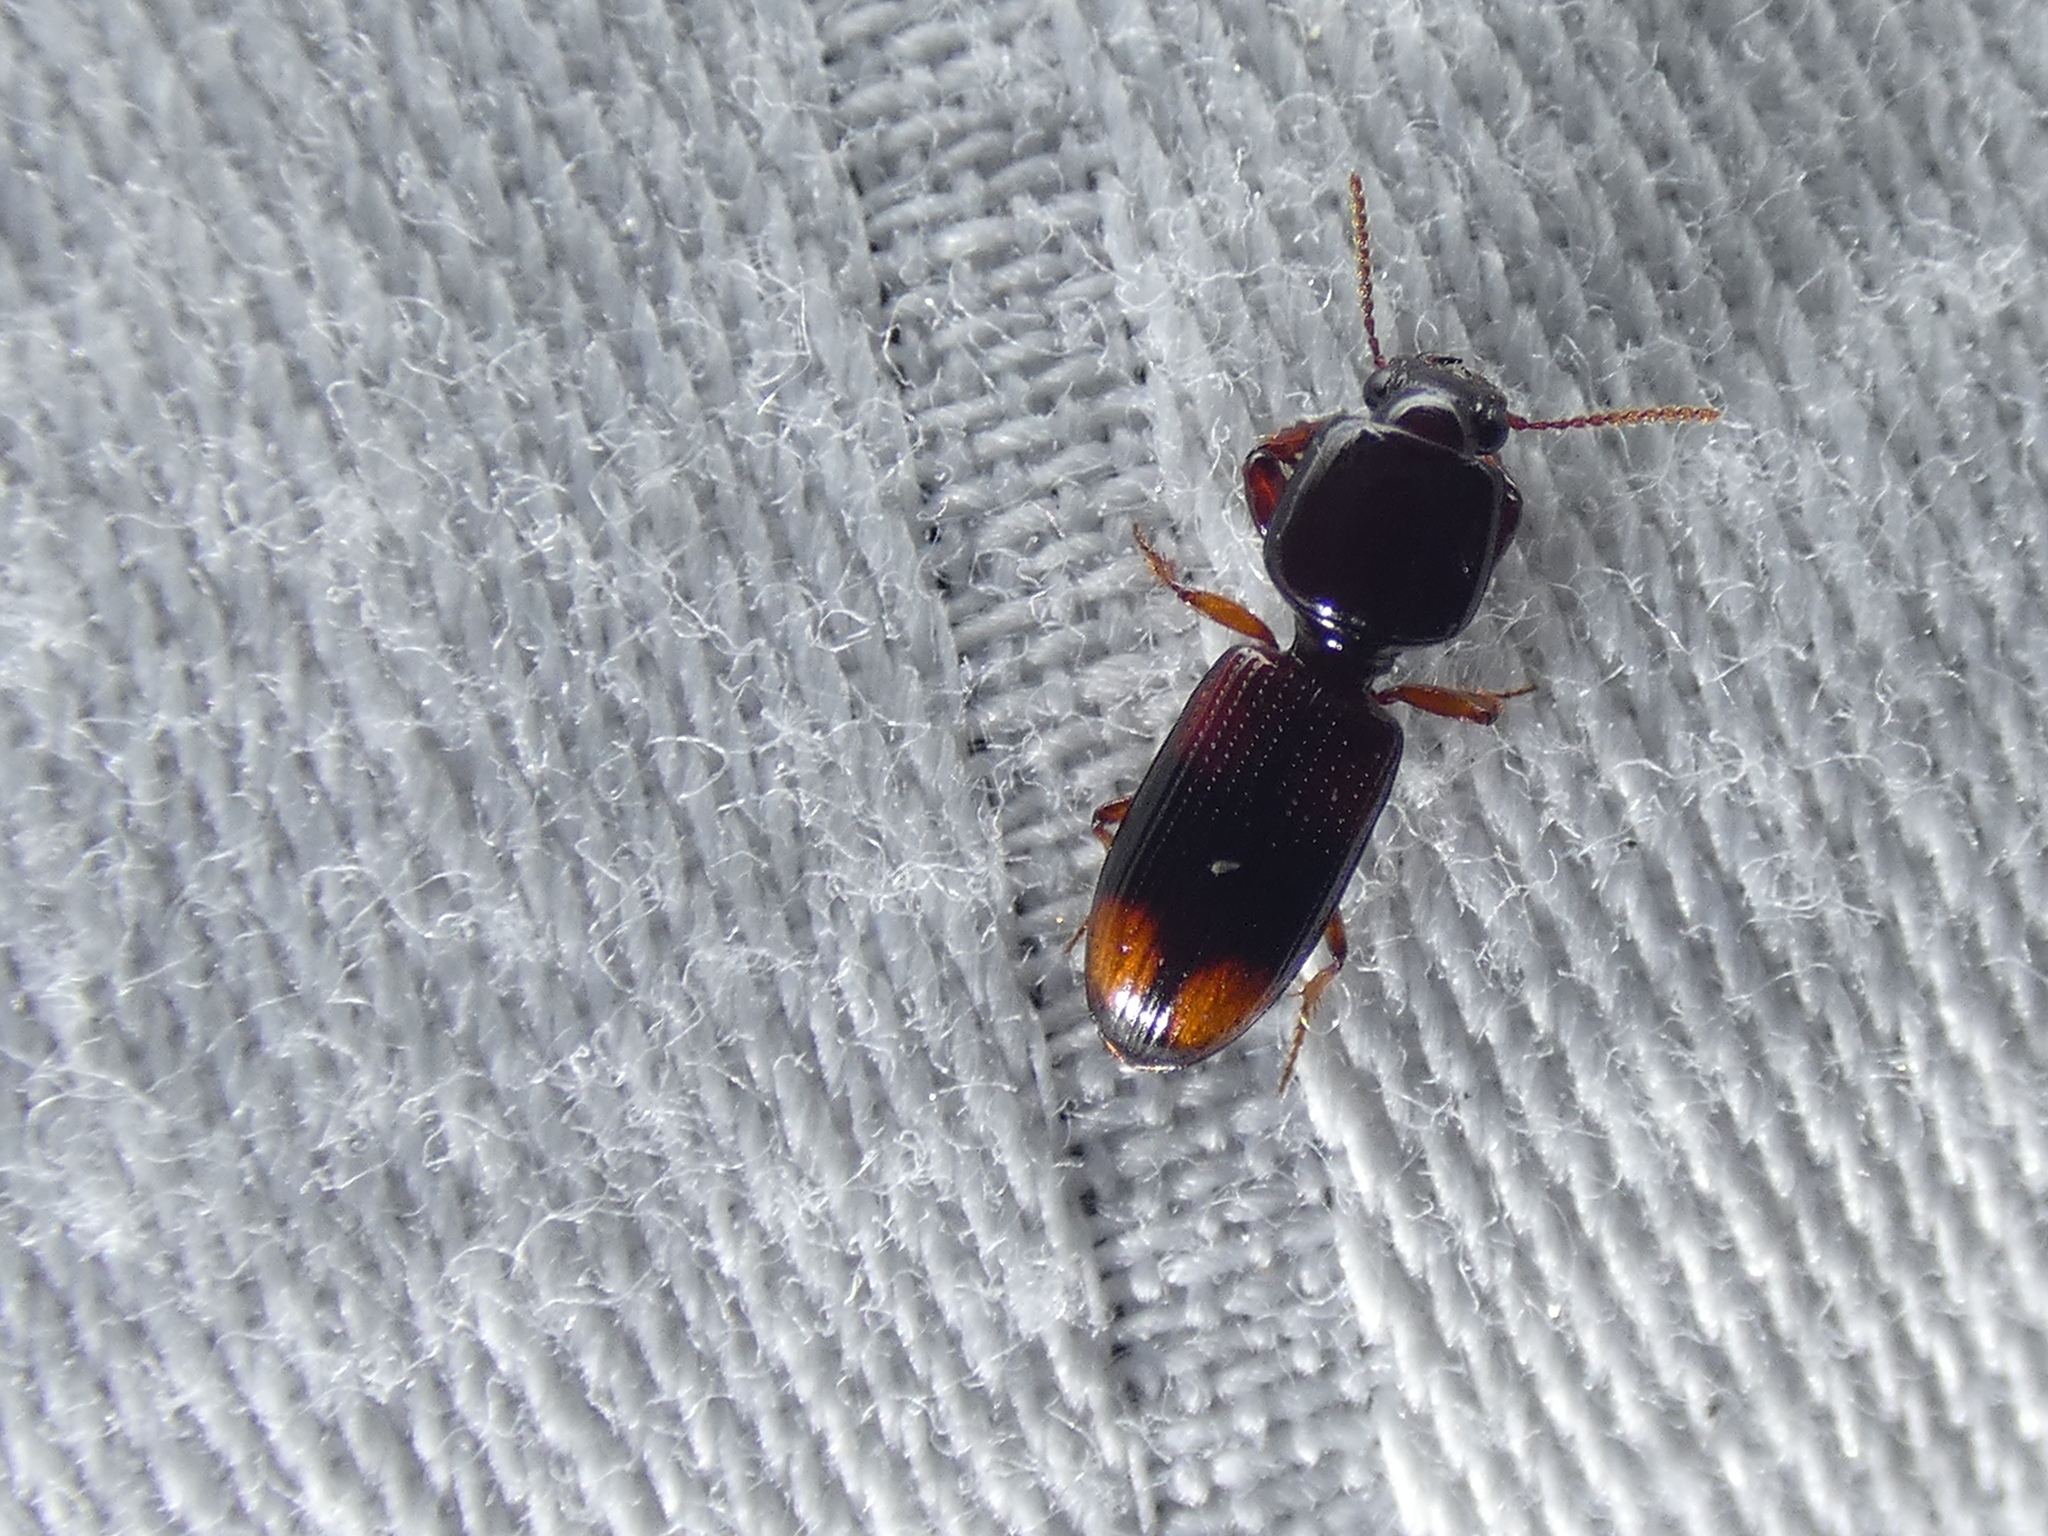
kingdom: Animalia
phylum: Arthropoda
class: Insecta
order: Coleoptera
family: Carabidae
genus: Clivina
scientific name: Clivina bipustulata
